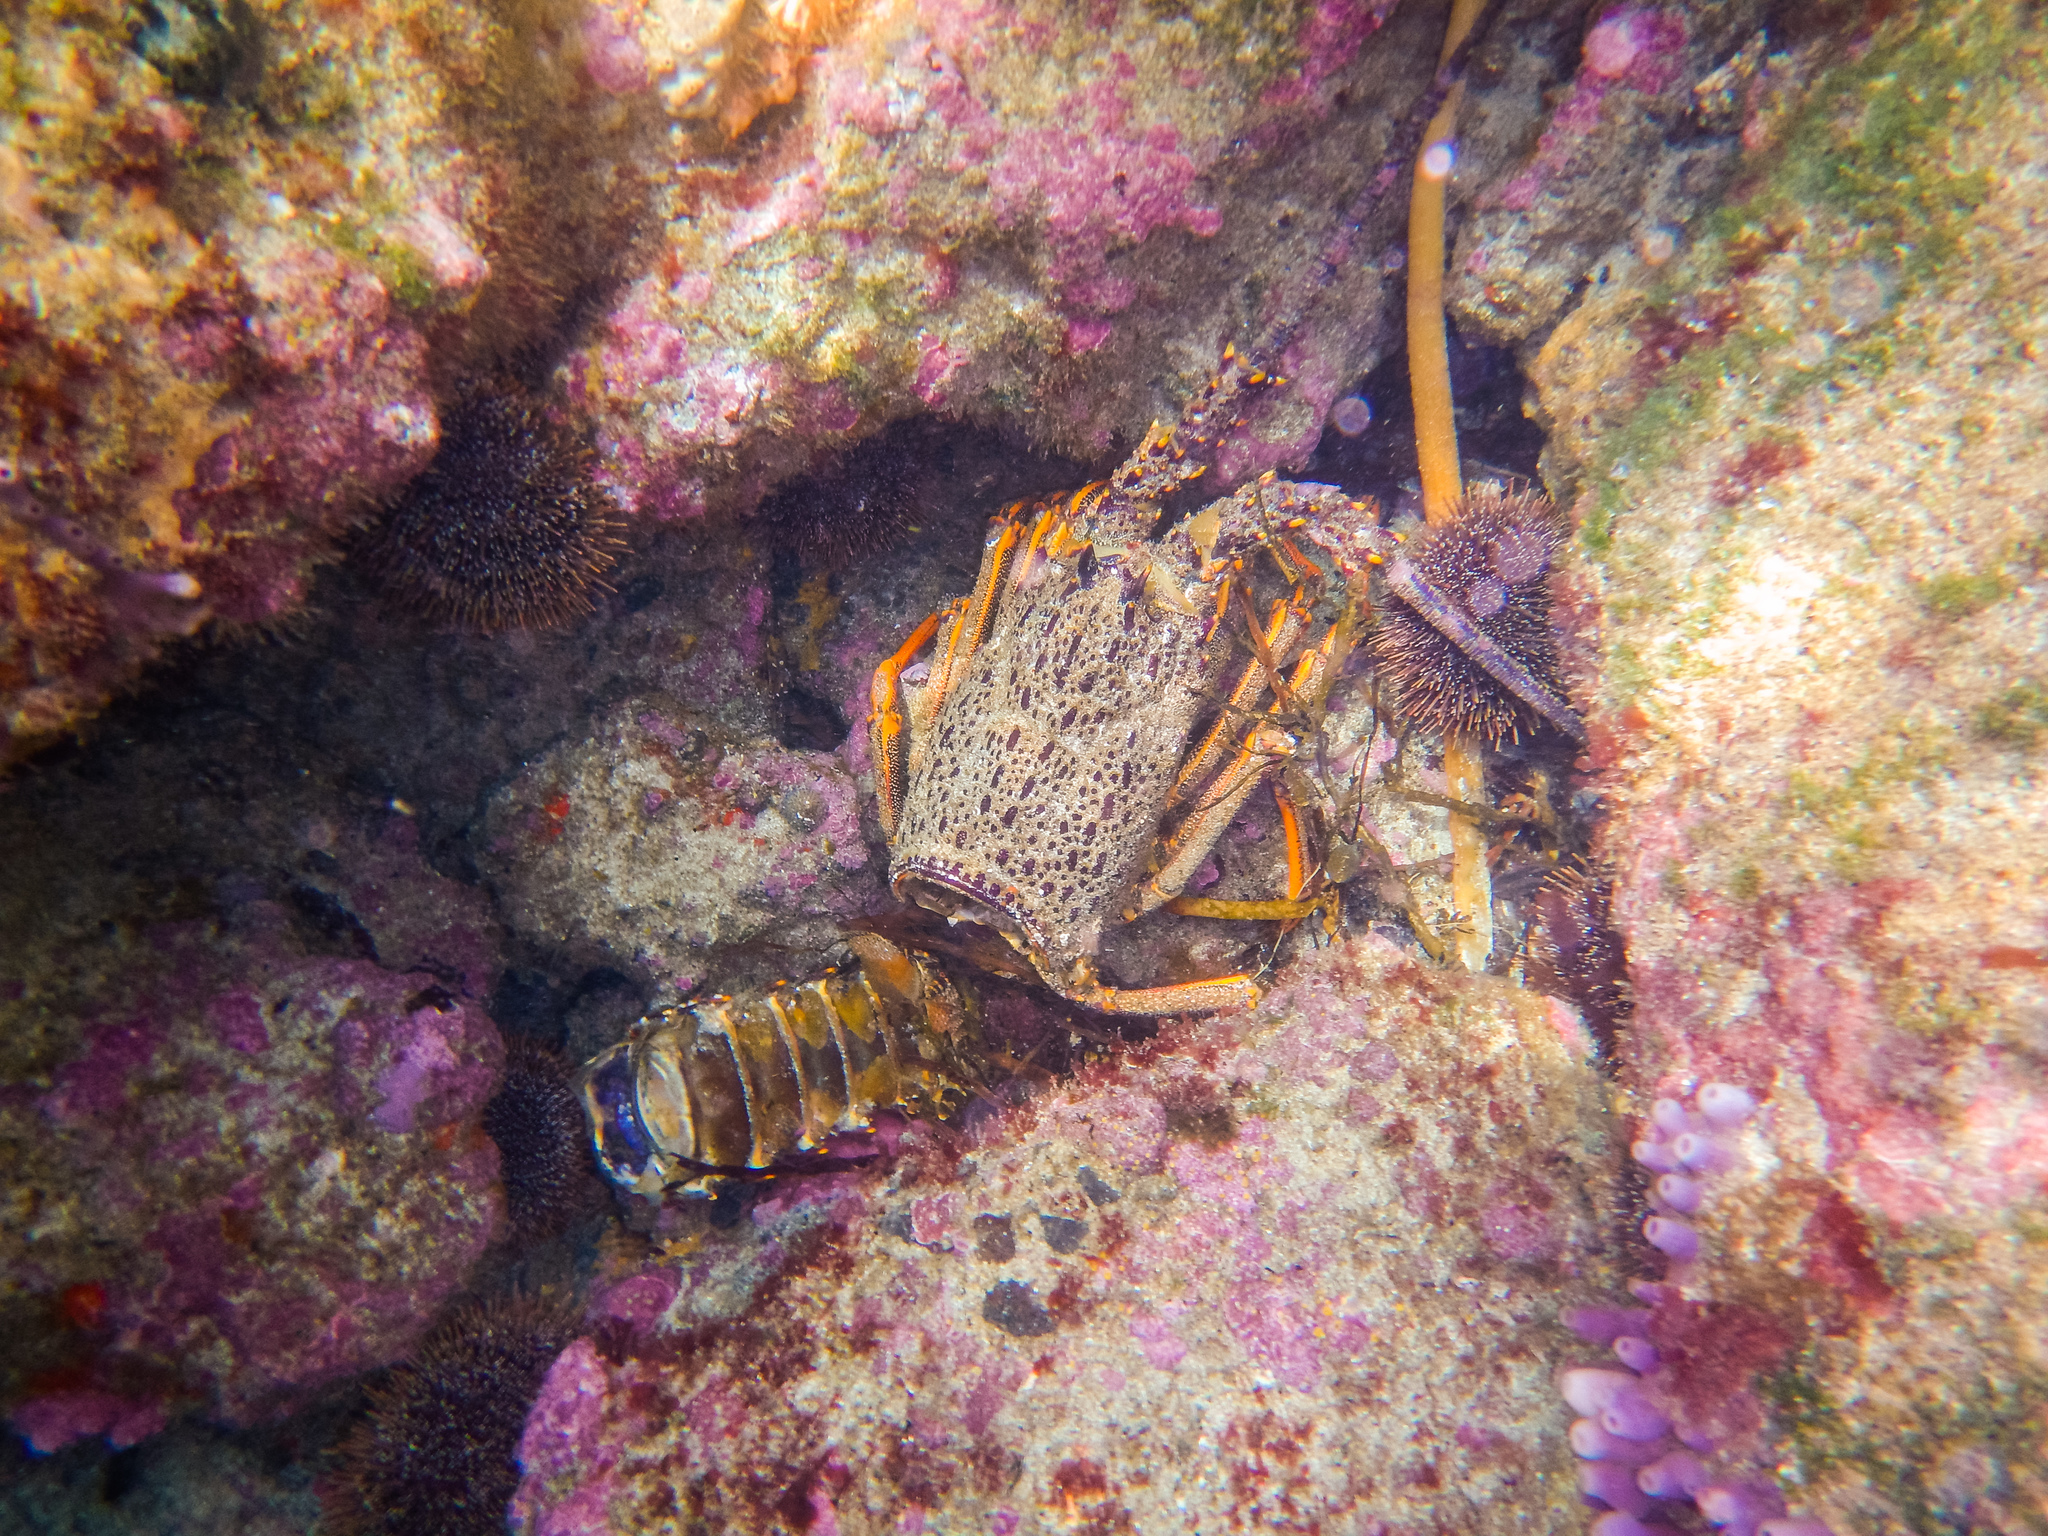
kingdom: Animalia
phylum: Arthropoda
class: Malacostraca
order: Decapoda
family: Palinuridae
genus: Jasus
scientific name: Jasus edwardsii
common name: Red rock lobster
